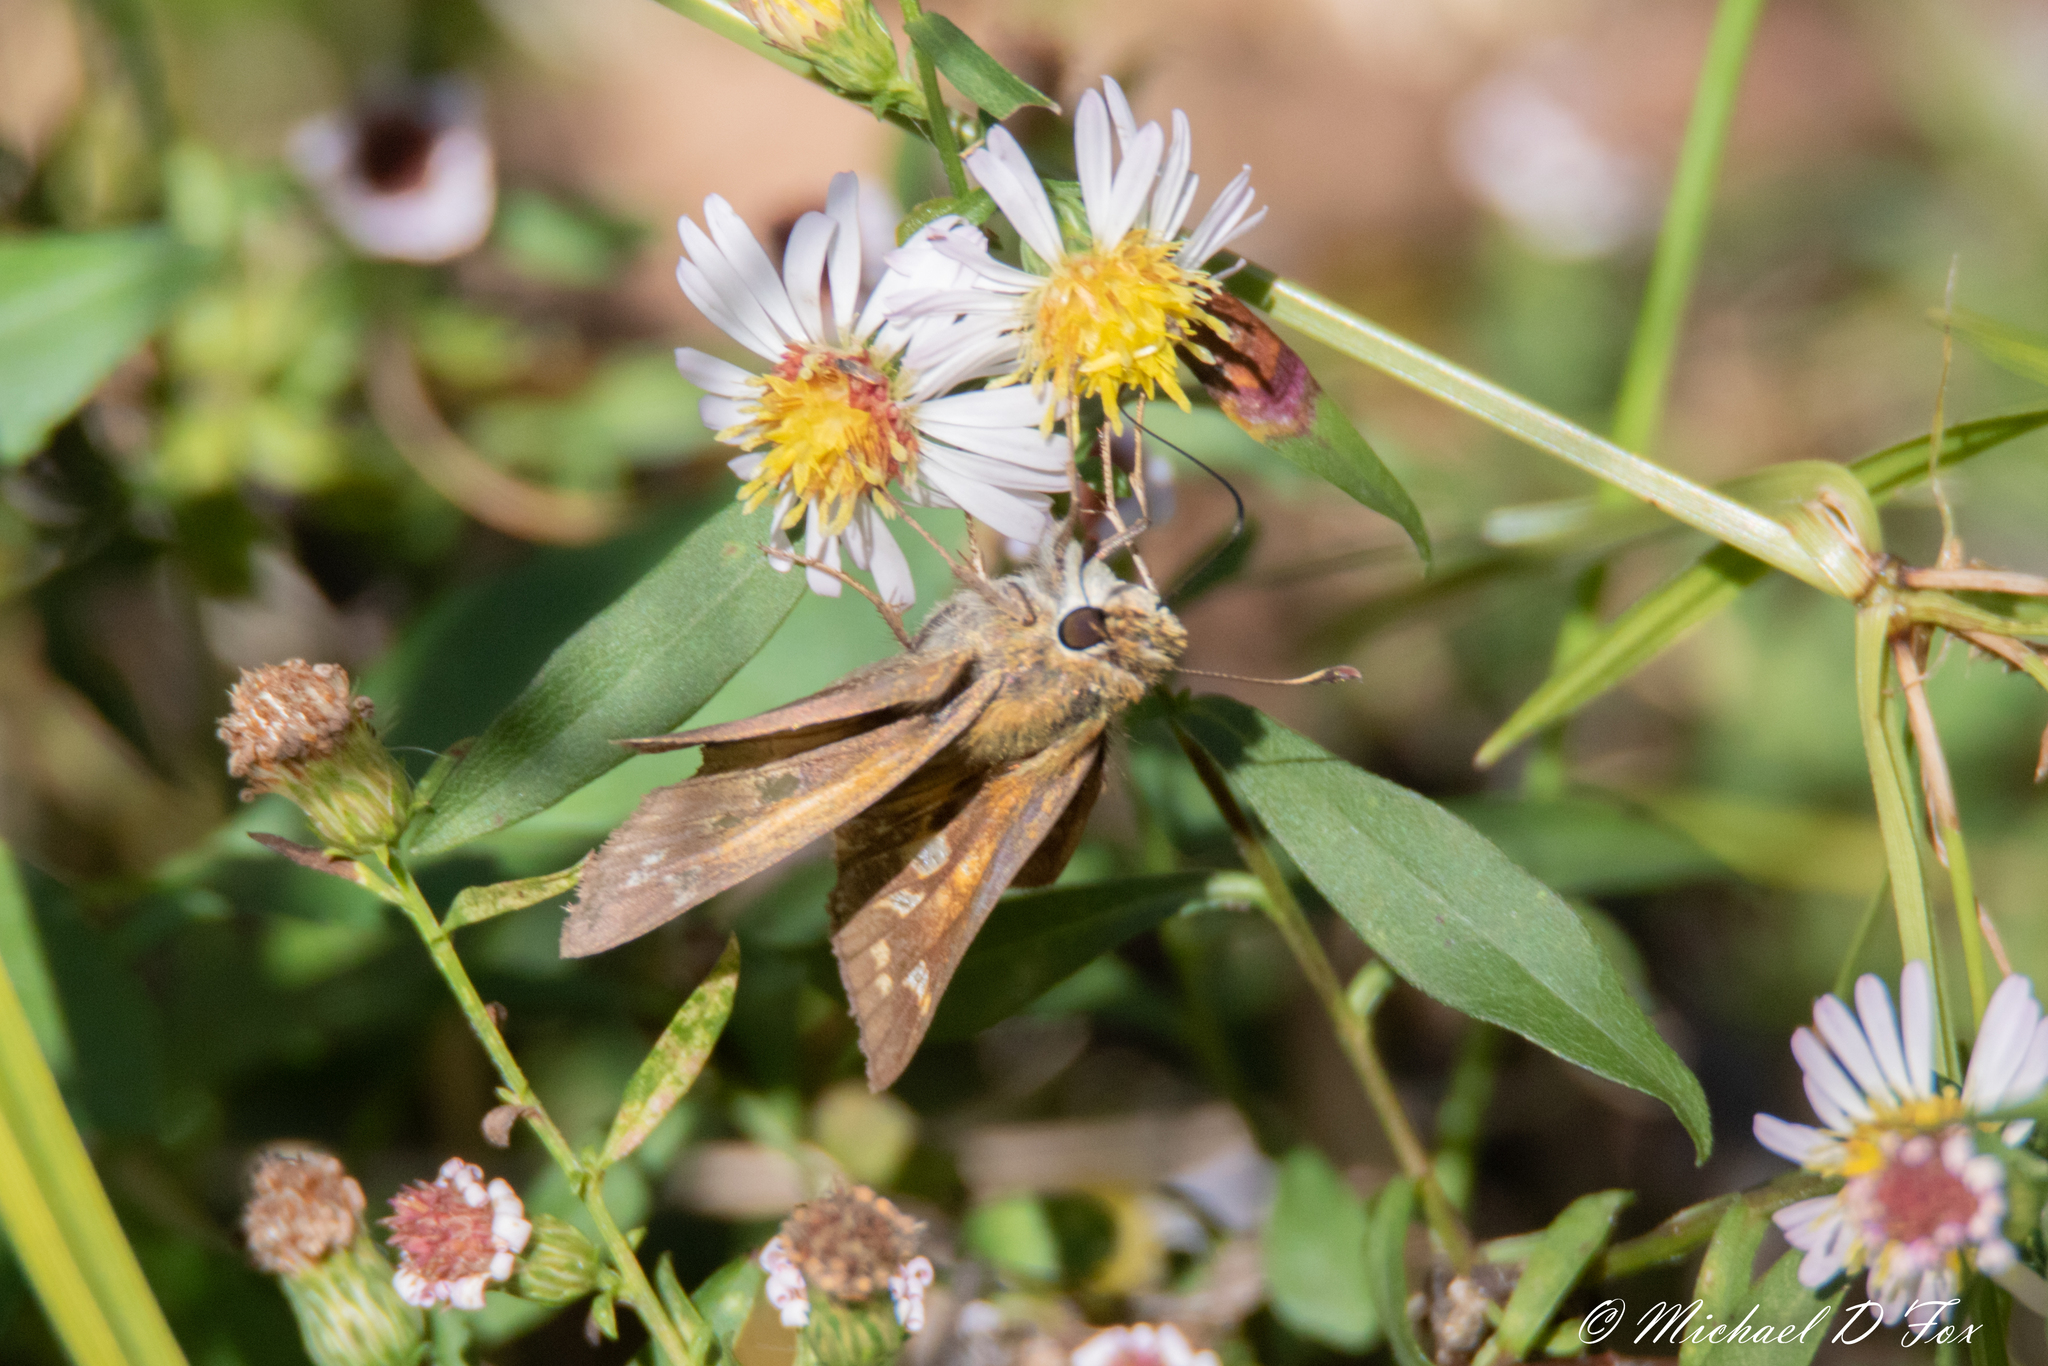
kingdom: Animalia
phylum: Arthropoda
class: Insecta
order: Lepidoptera
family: Hesperiidae
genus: Atalopedes
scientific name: Atalopedes
